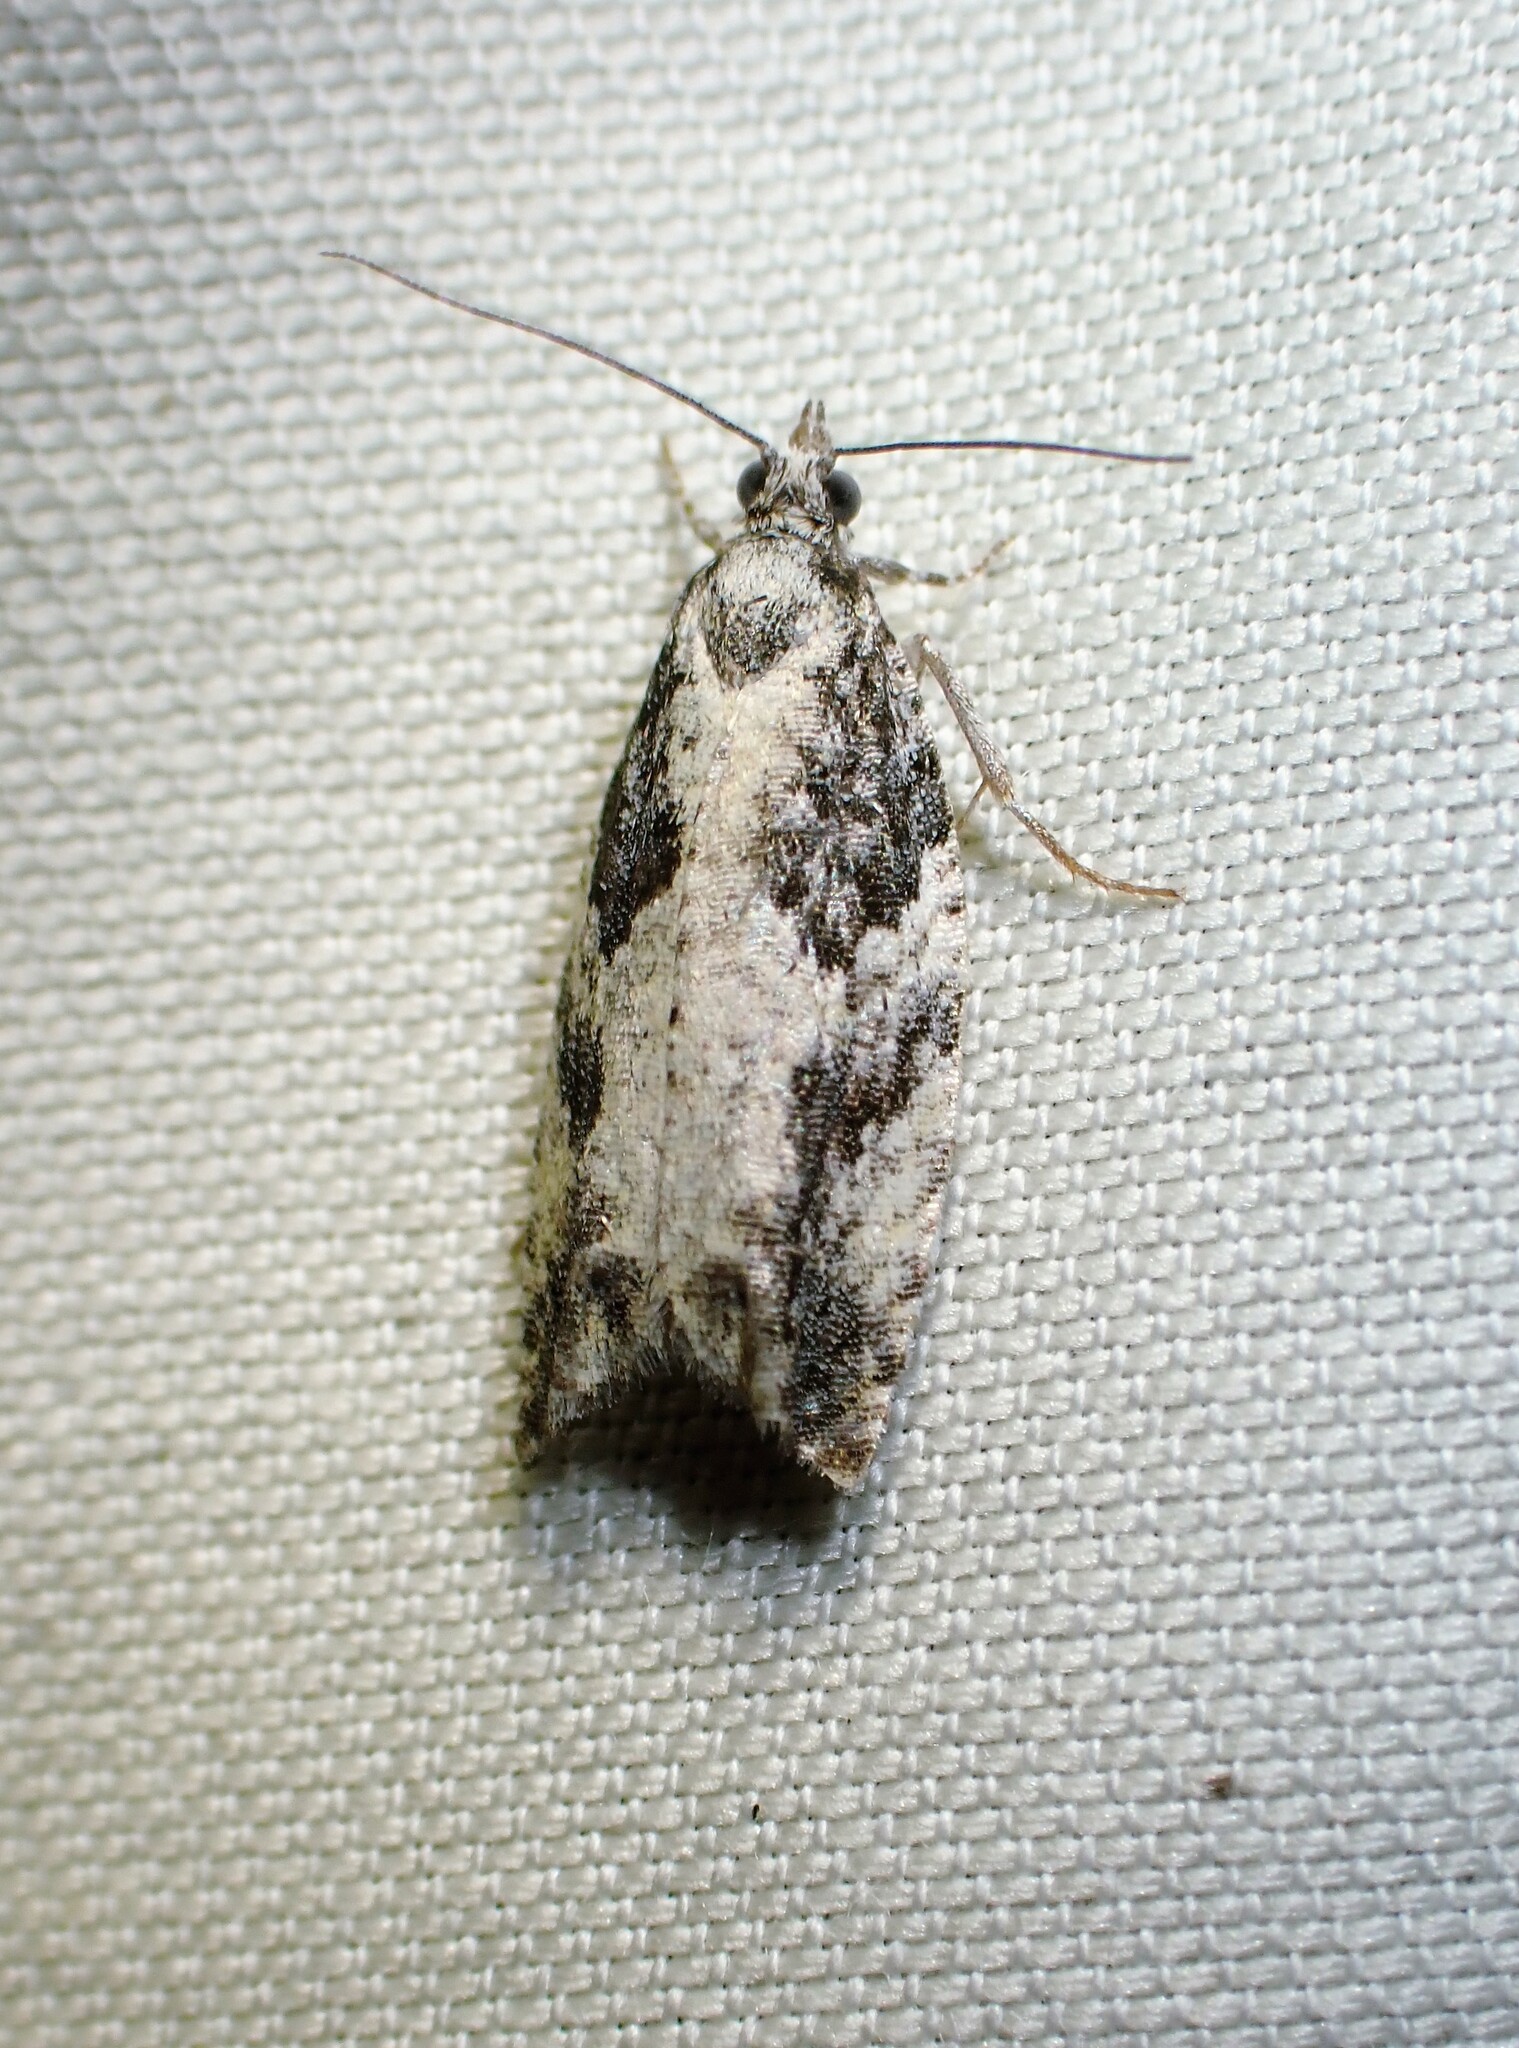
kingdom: Animalia
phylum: Arthropoda
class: Insecta
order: Lepidoptera
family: Tortricidae
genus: Epinotia
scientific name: Epinotia cinereana
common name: Grey aspen bell
